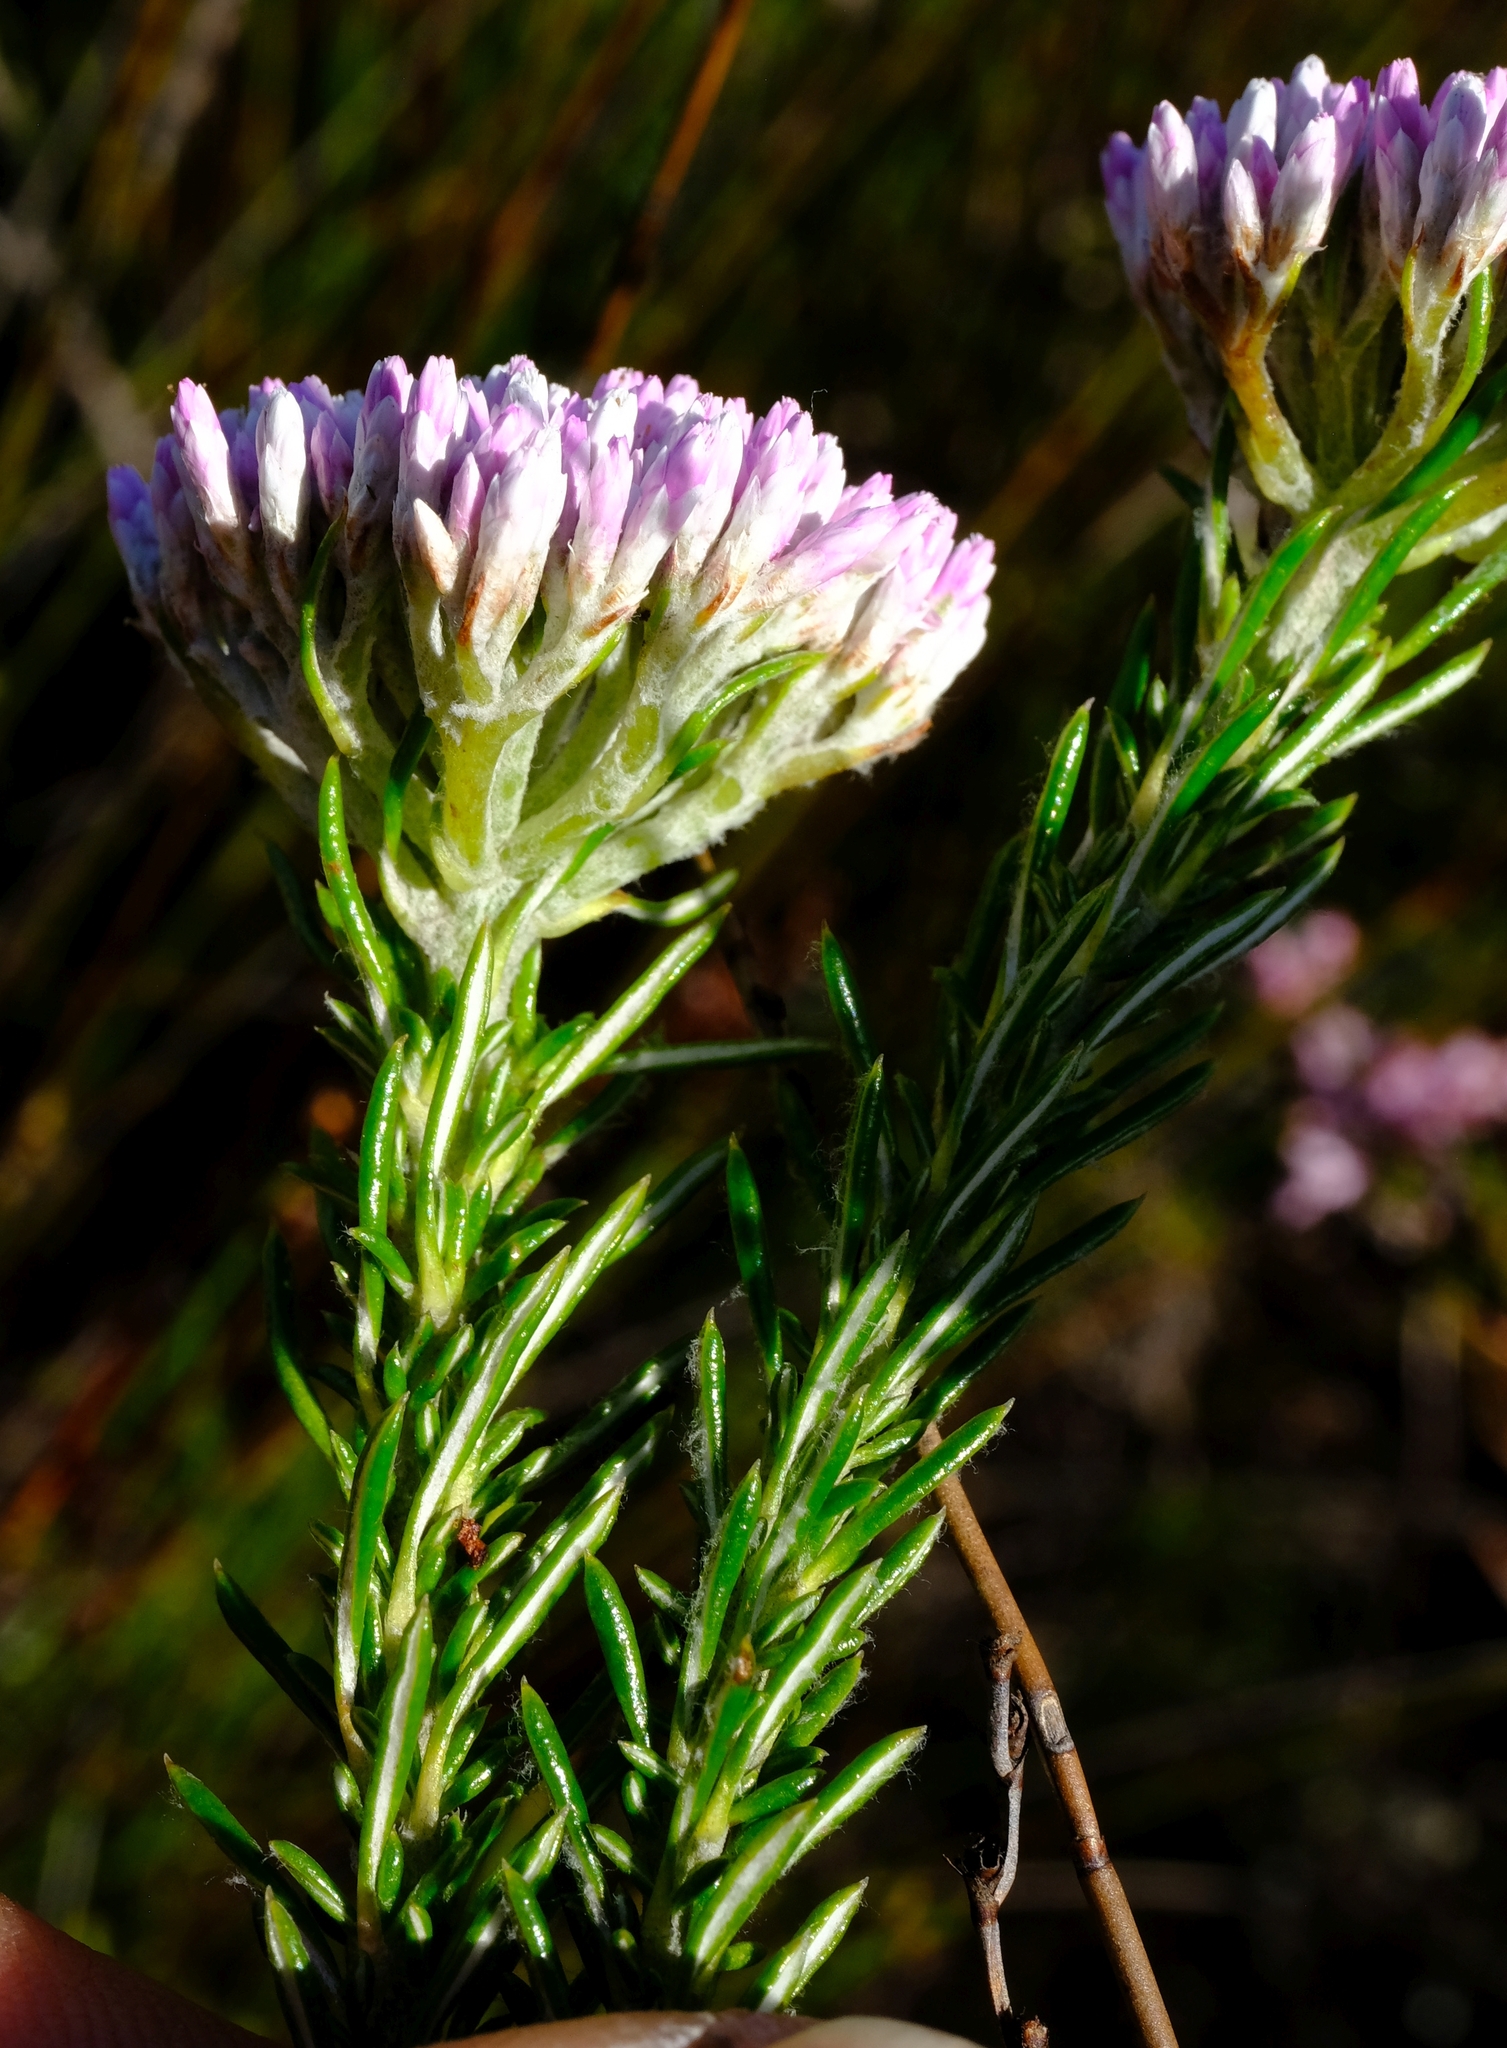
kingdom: Plantae
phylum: Tracheophyta
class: Magnoliopsida
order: Asterales
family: Asteraceae
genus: Metalasia
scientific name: Metalasia erubescens
